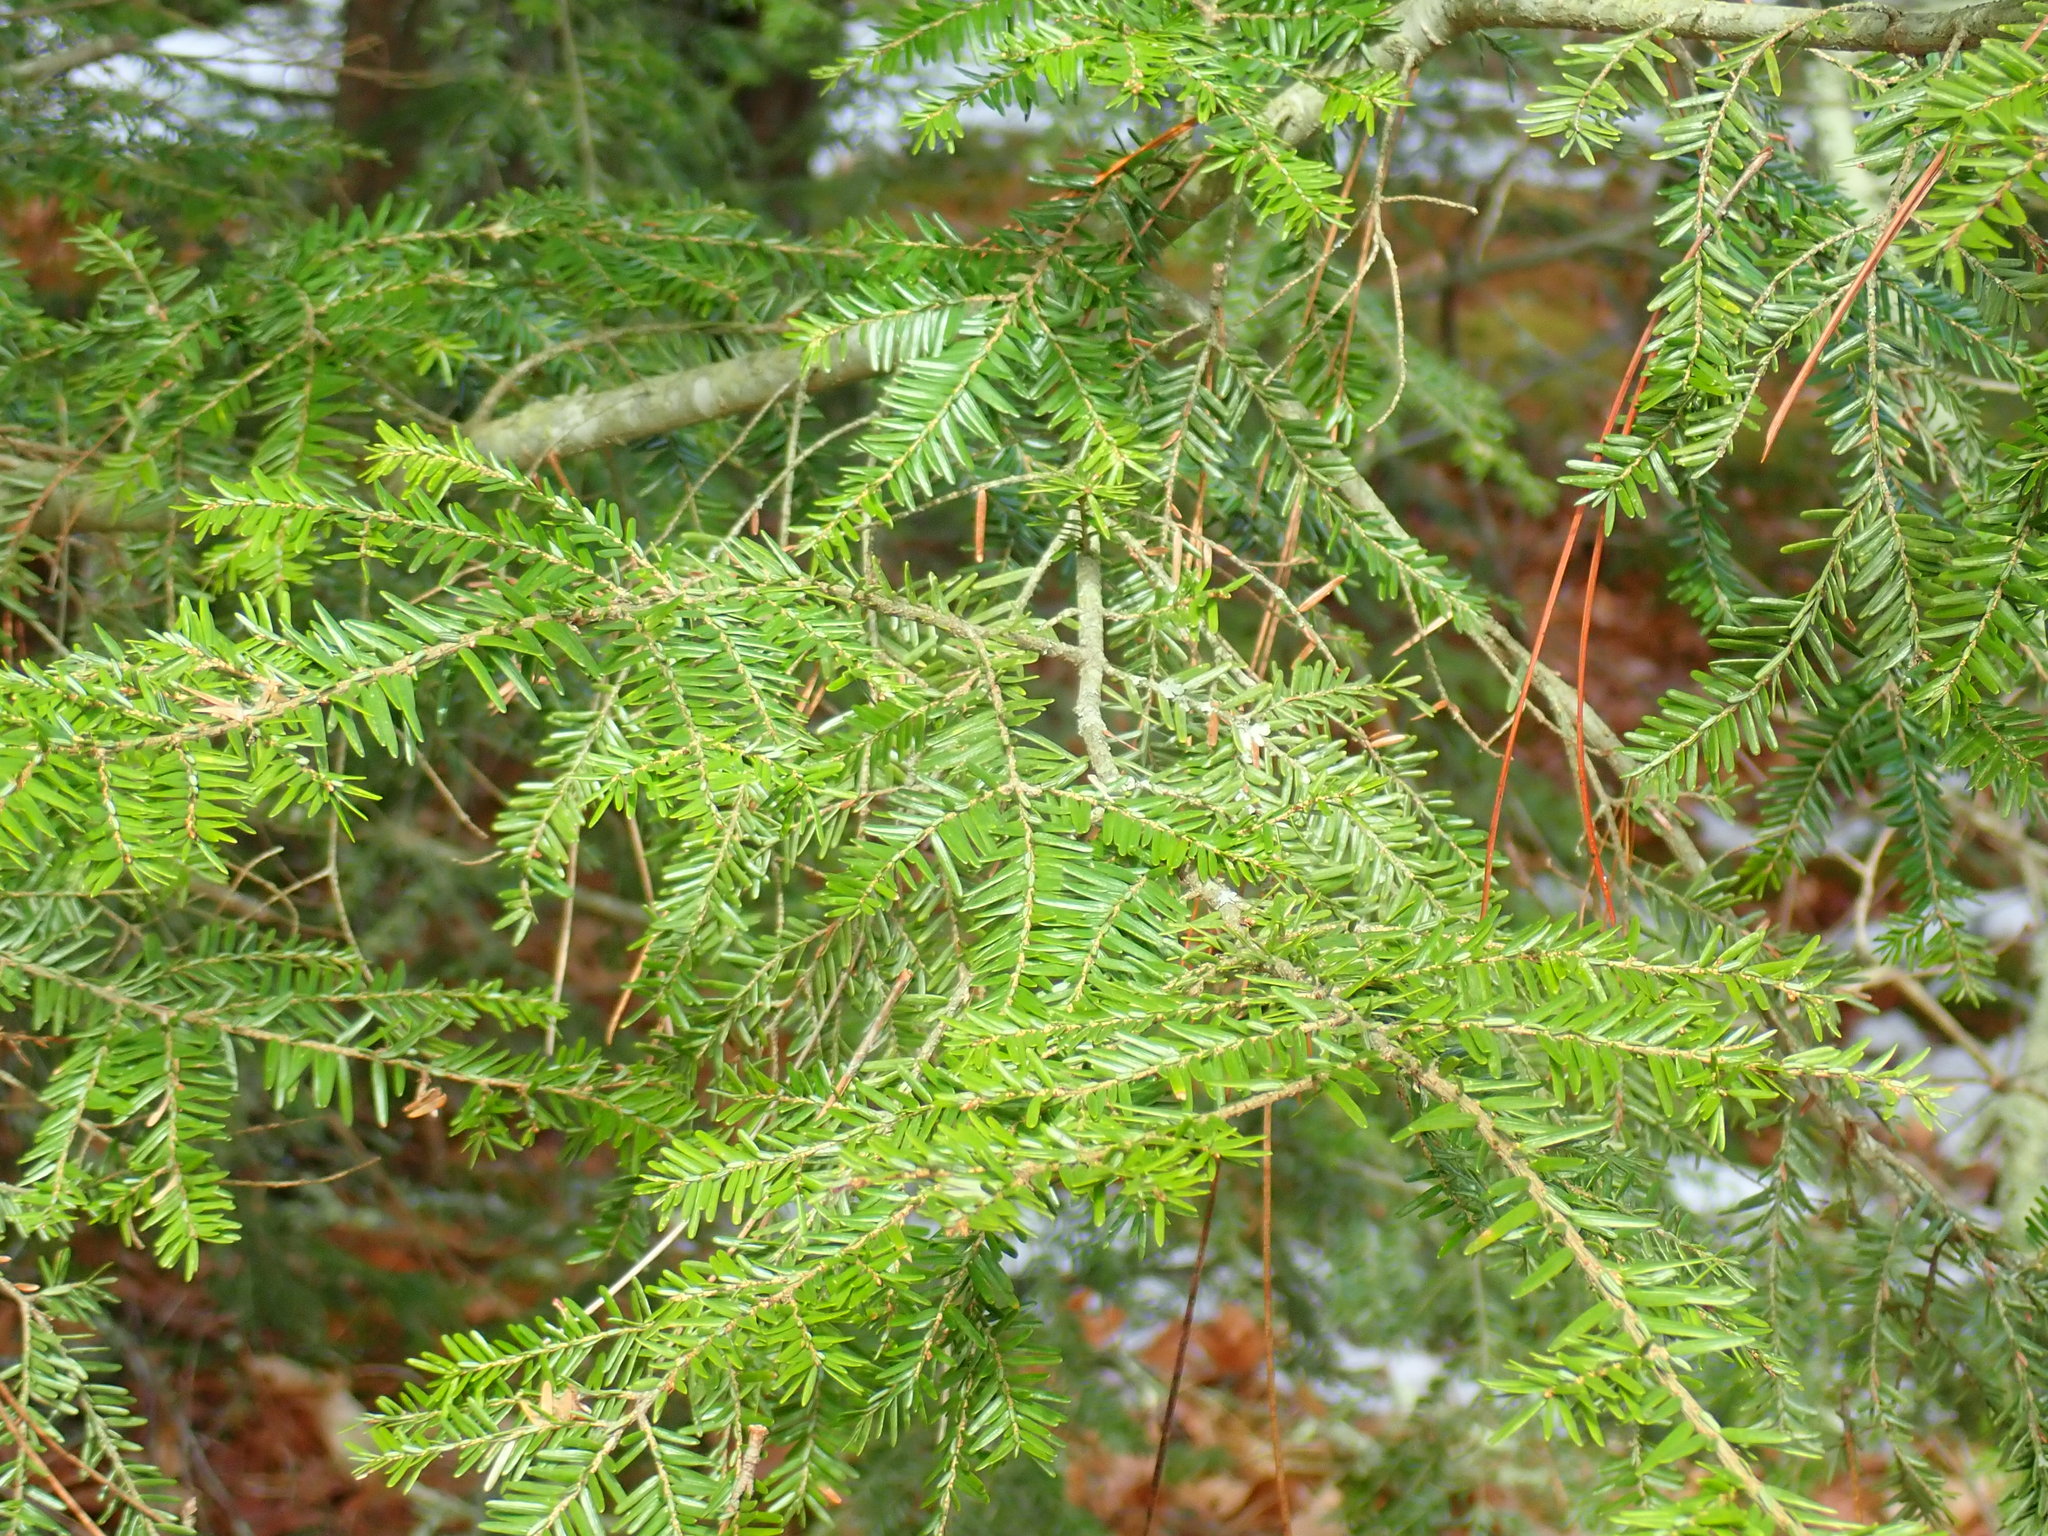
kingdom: Plantae
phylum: Tracheophyta
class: Pinopsida
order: Pinales
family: Pinaceae
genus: Tsuga
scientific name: Tsuga canadensis
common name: Eastern hemlock
